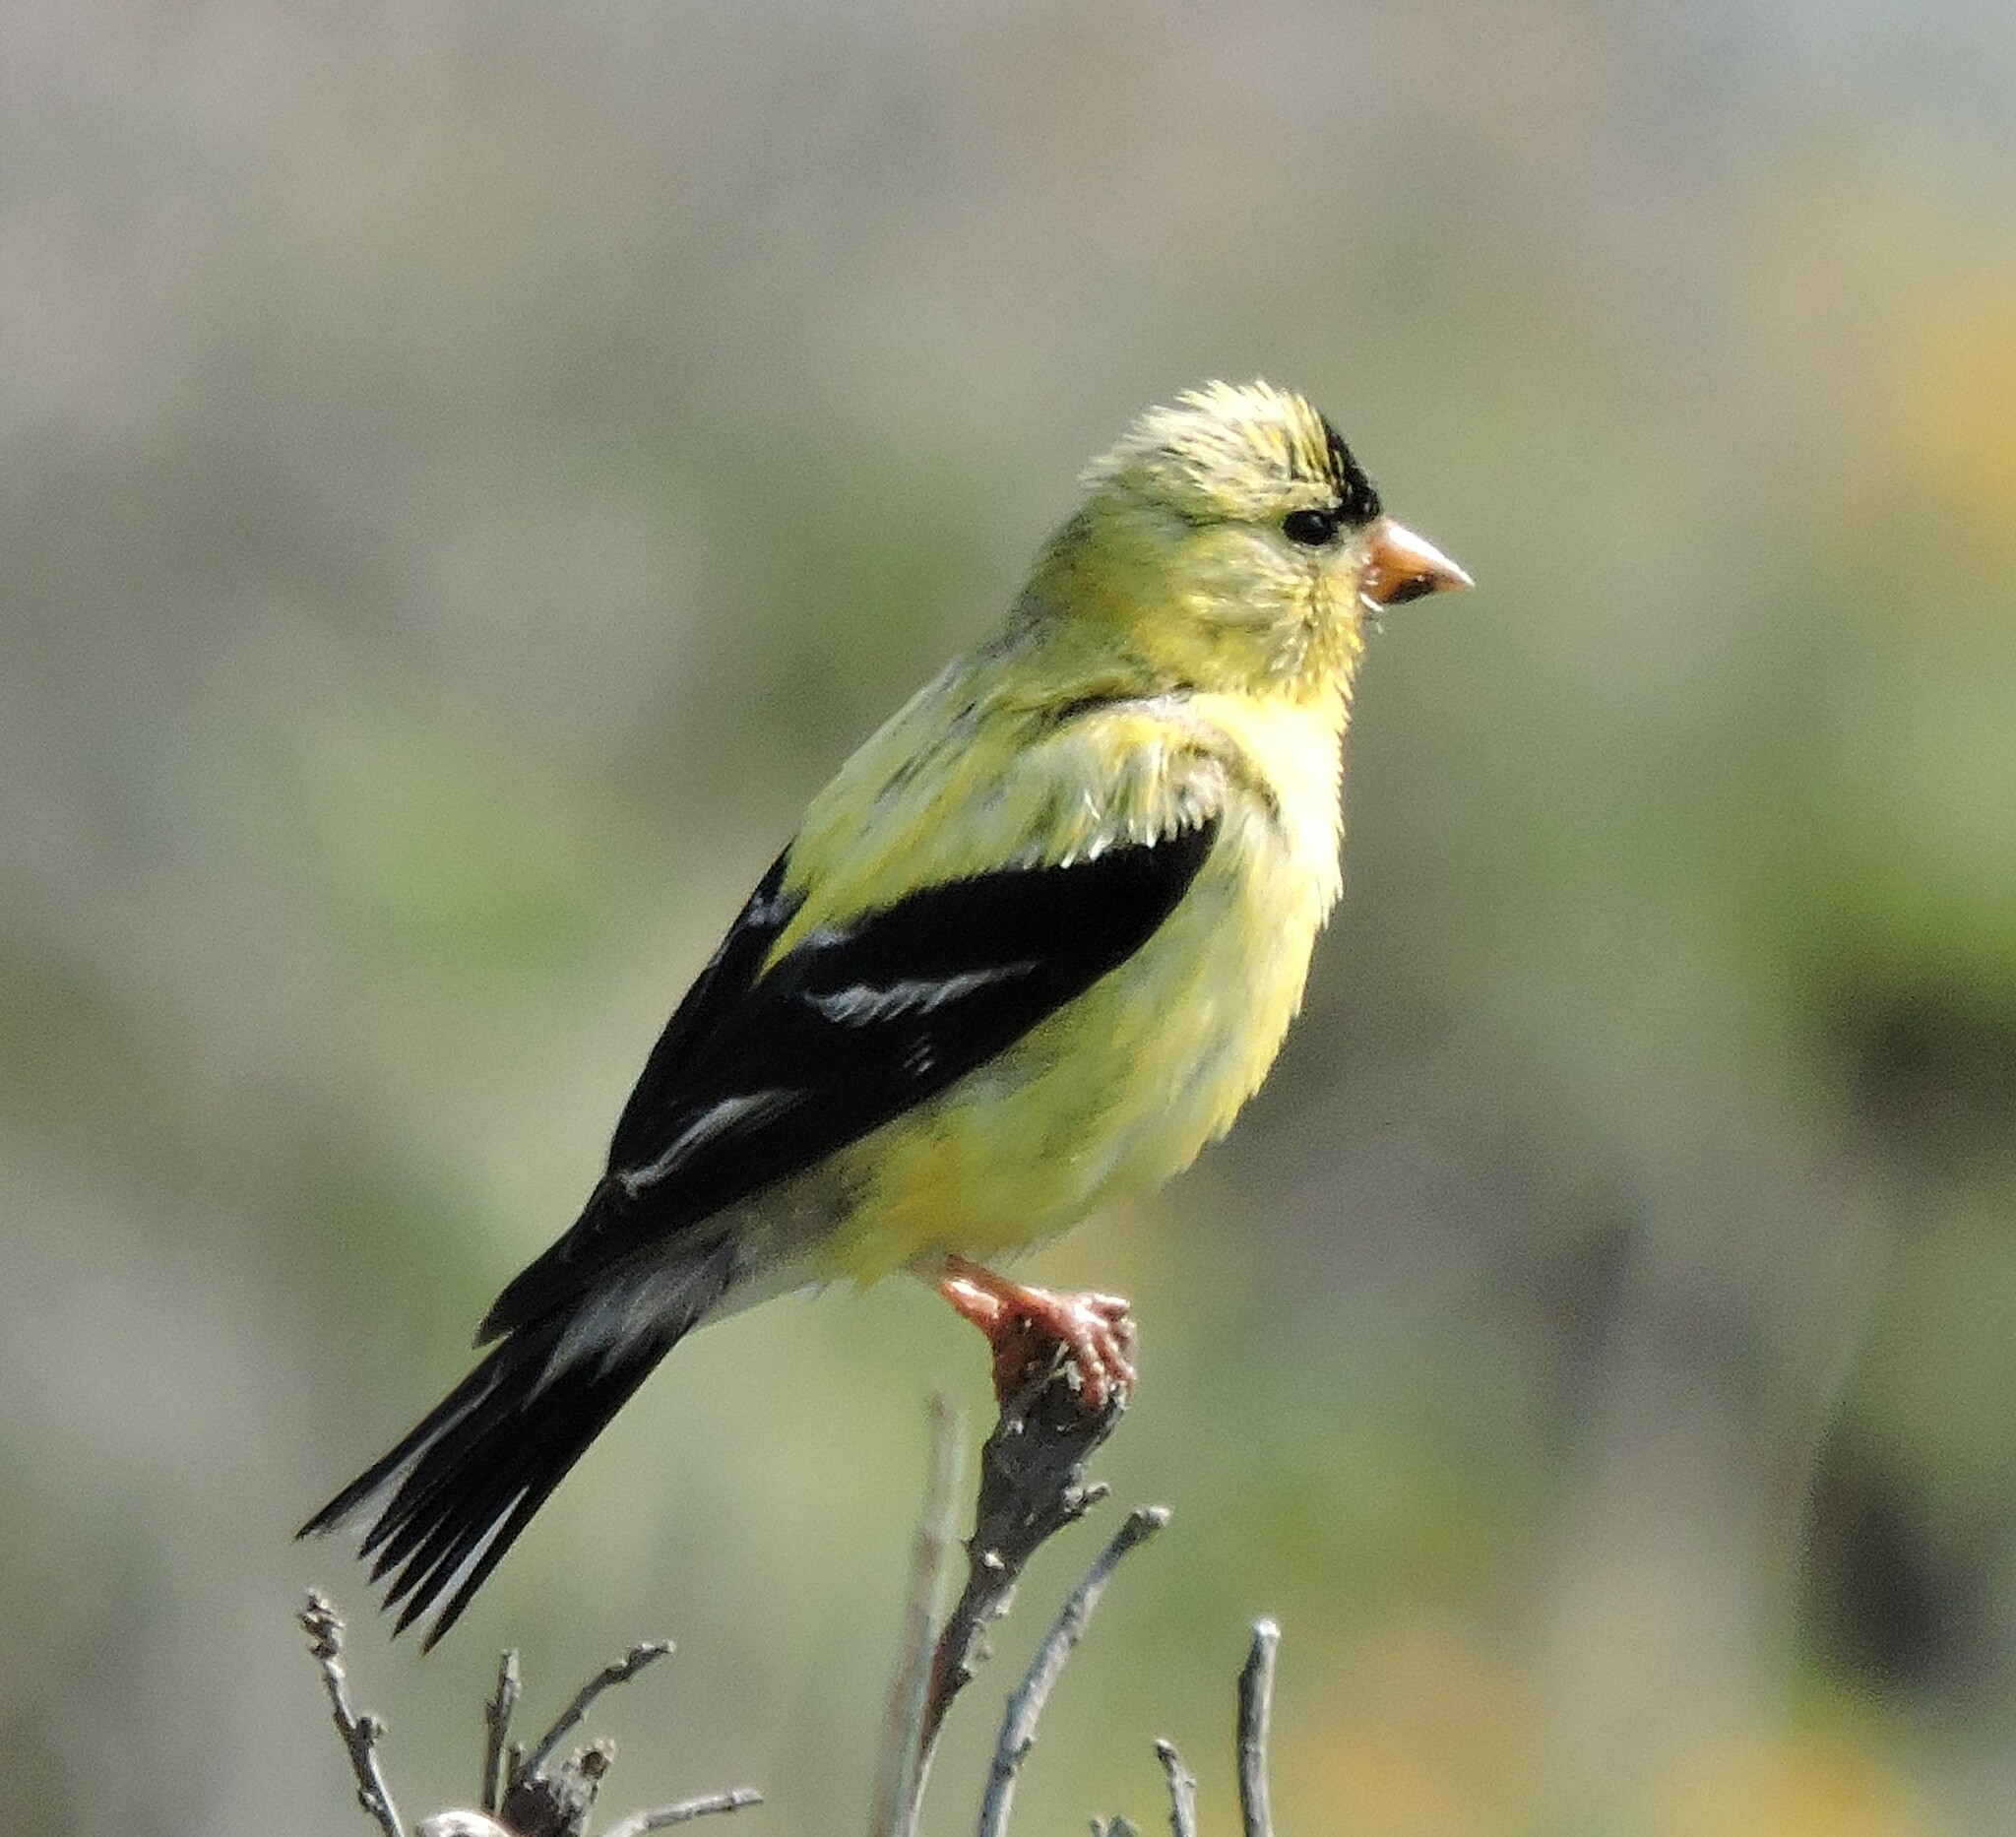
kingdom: Animalia
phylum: Chordata
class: Aves
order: Passeriformes
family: Fringillidae
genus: Spinus
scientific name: Spinus tristis
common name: American goldfinch
